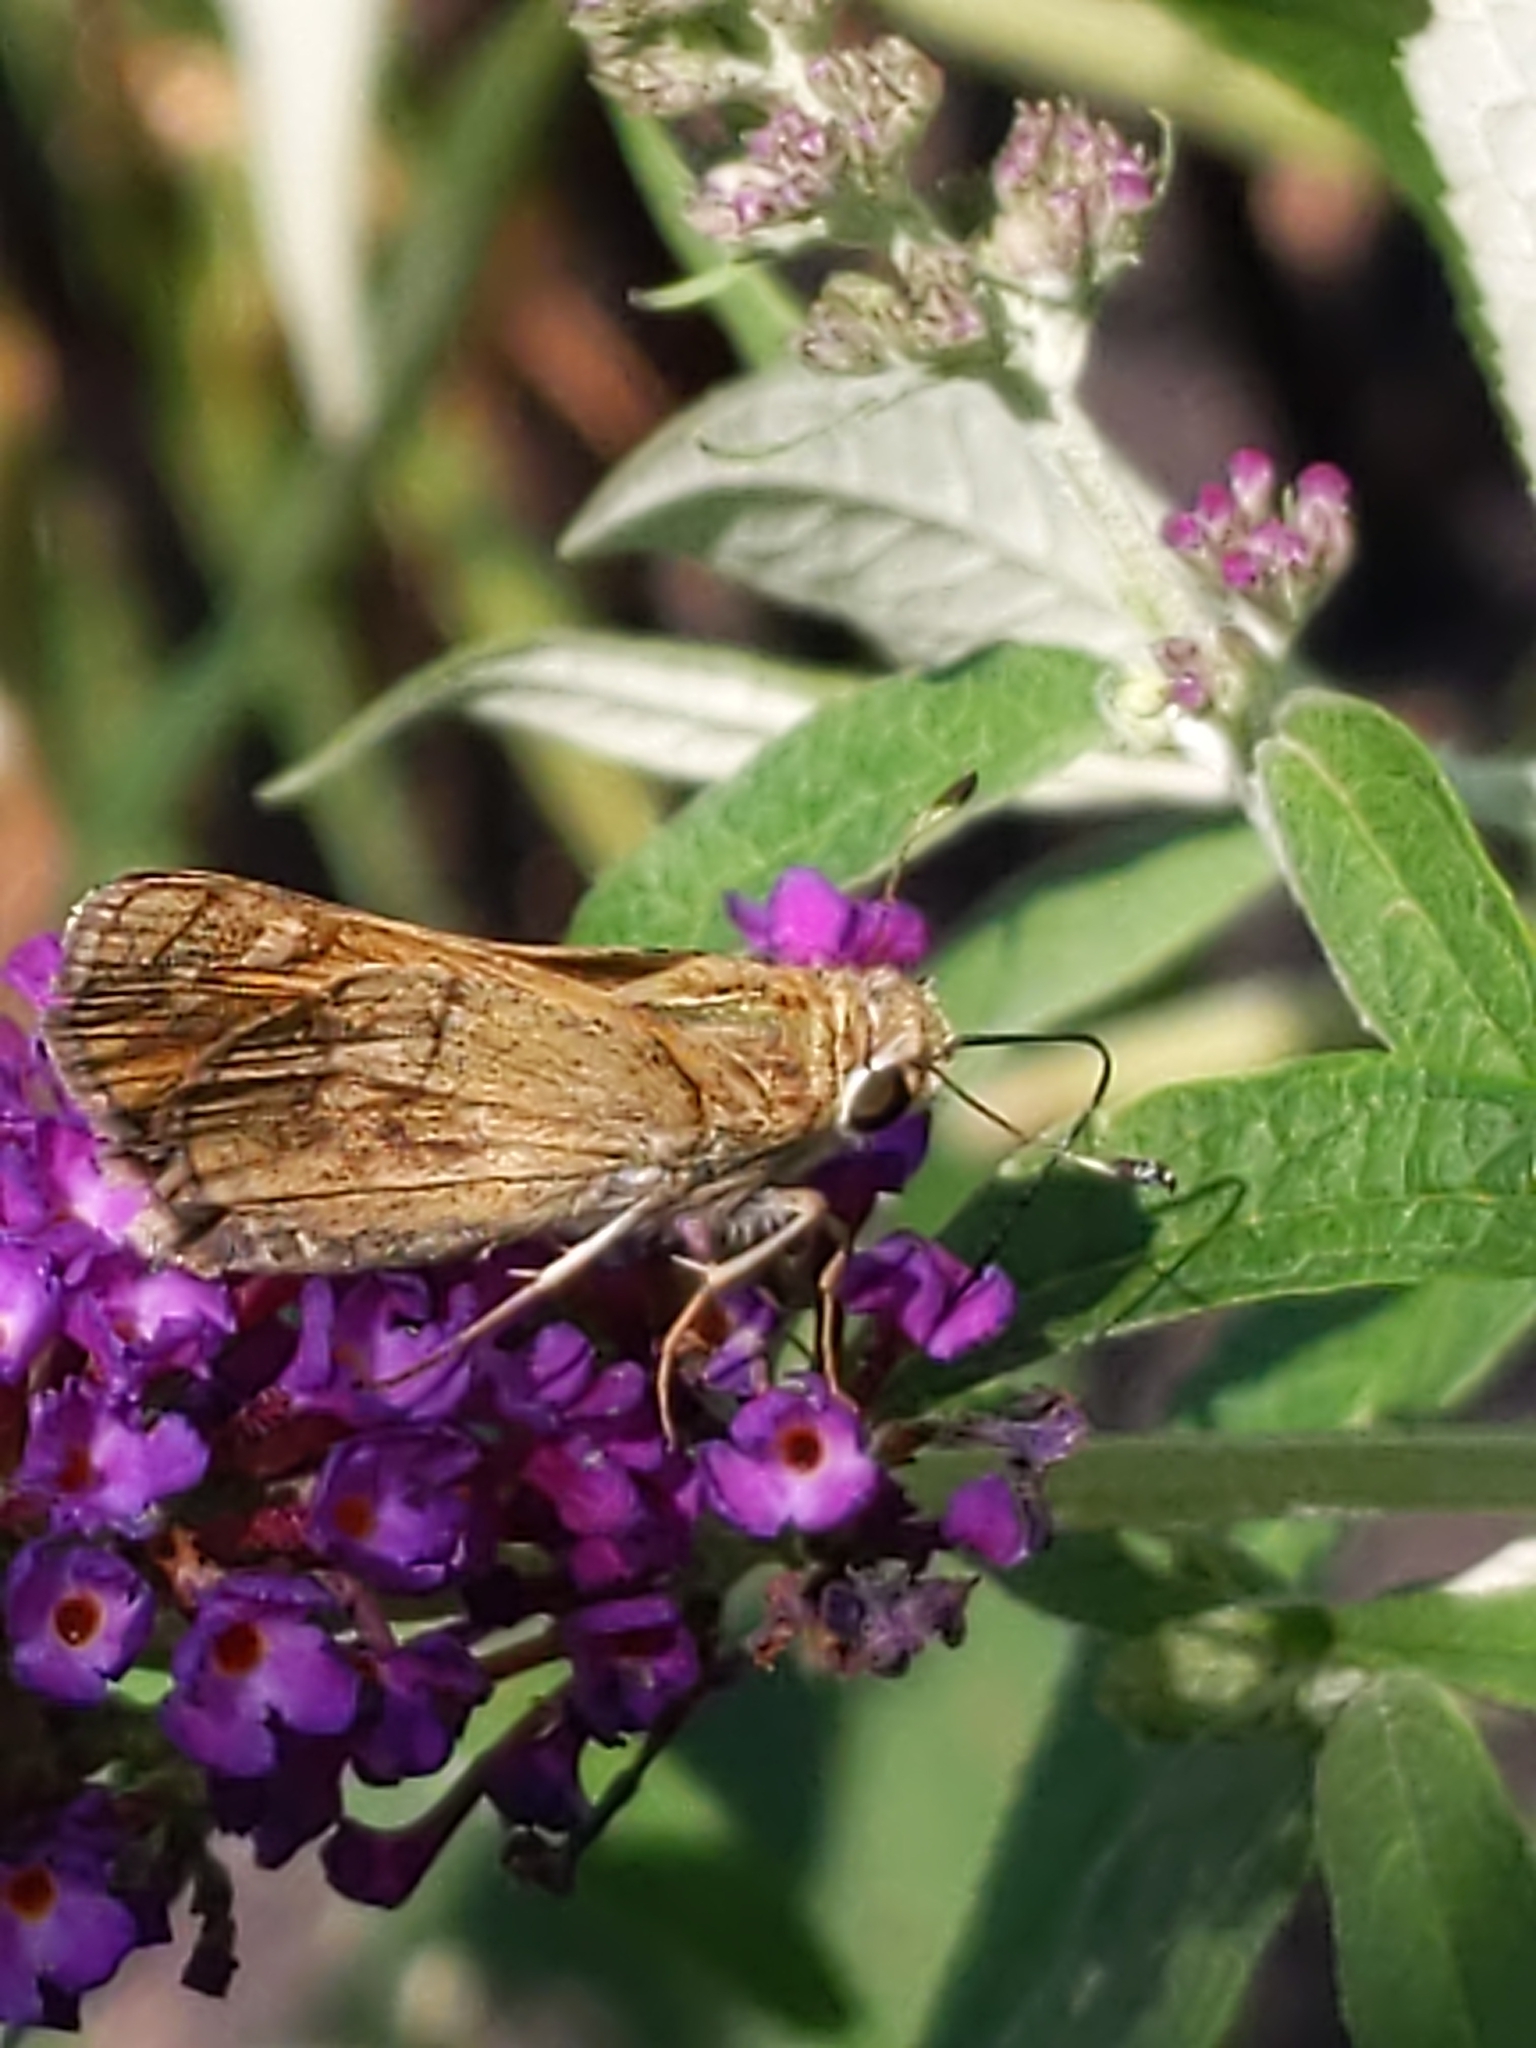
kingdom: Animalia
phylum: Arthropoda
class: Insecta
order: Lepidoptera
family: Hesperiidae
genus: Atalopedes
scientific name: Atalopedes
